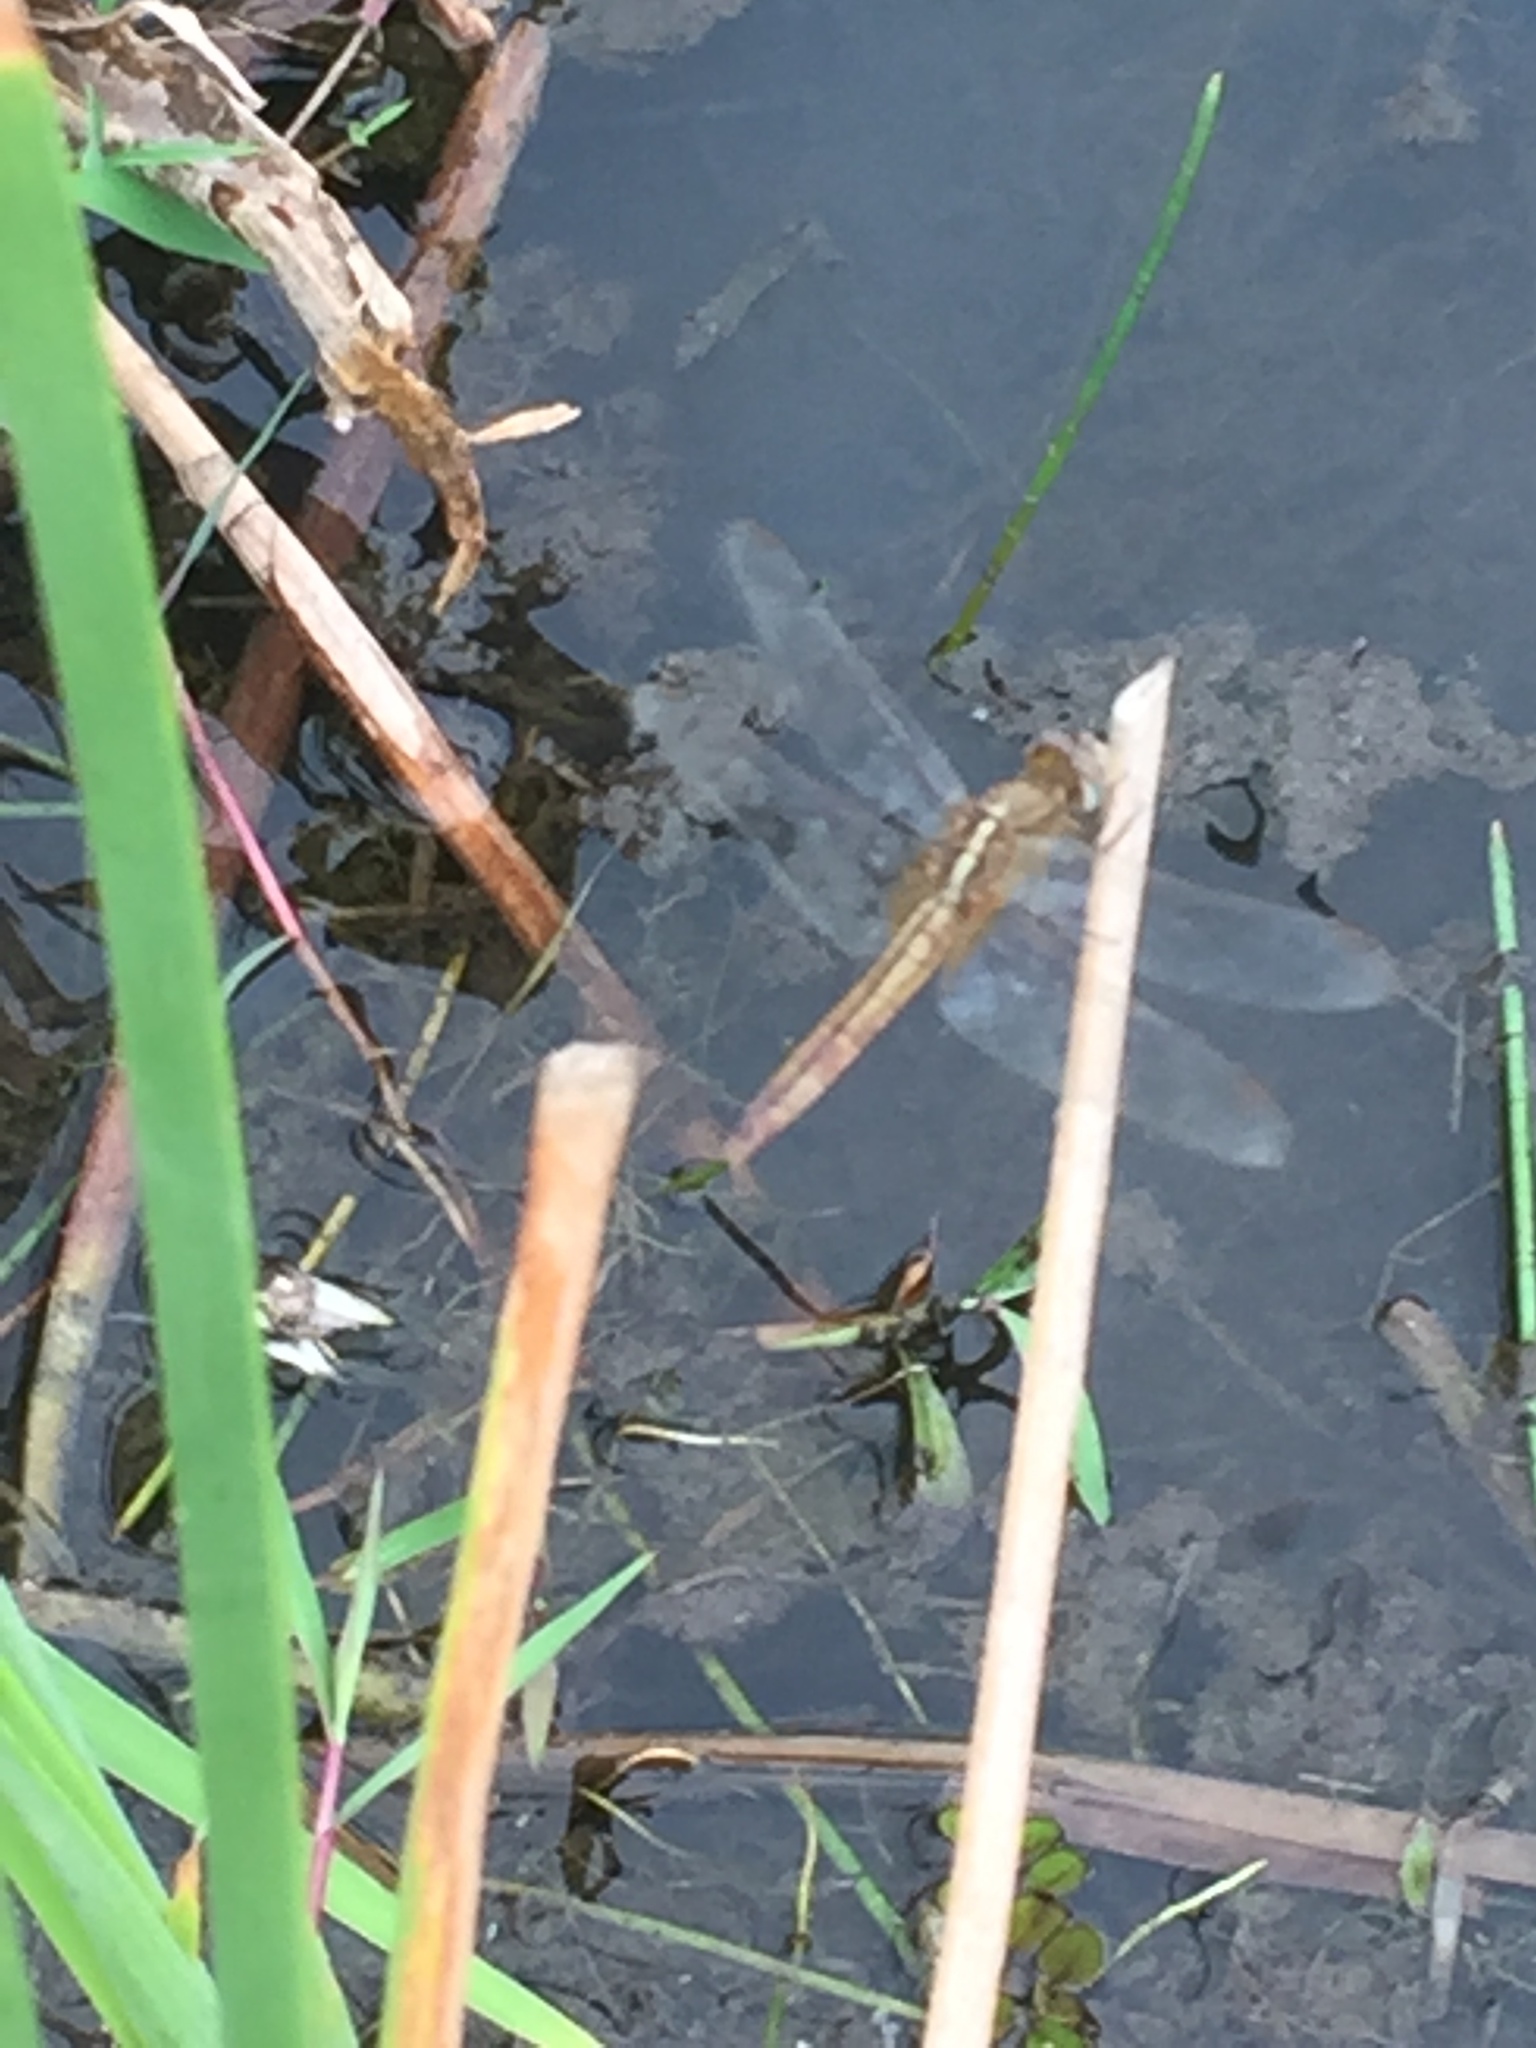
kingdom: Animalia
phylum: Arthropoda
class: Insecta
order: Odonata
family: Libellulidae
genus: Crocothemis
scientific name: Crocothemis servilia
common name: Scarlet skimmer
